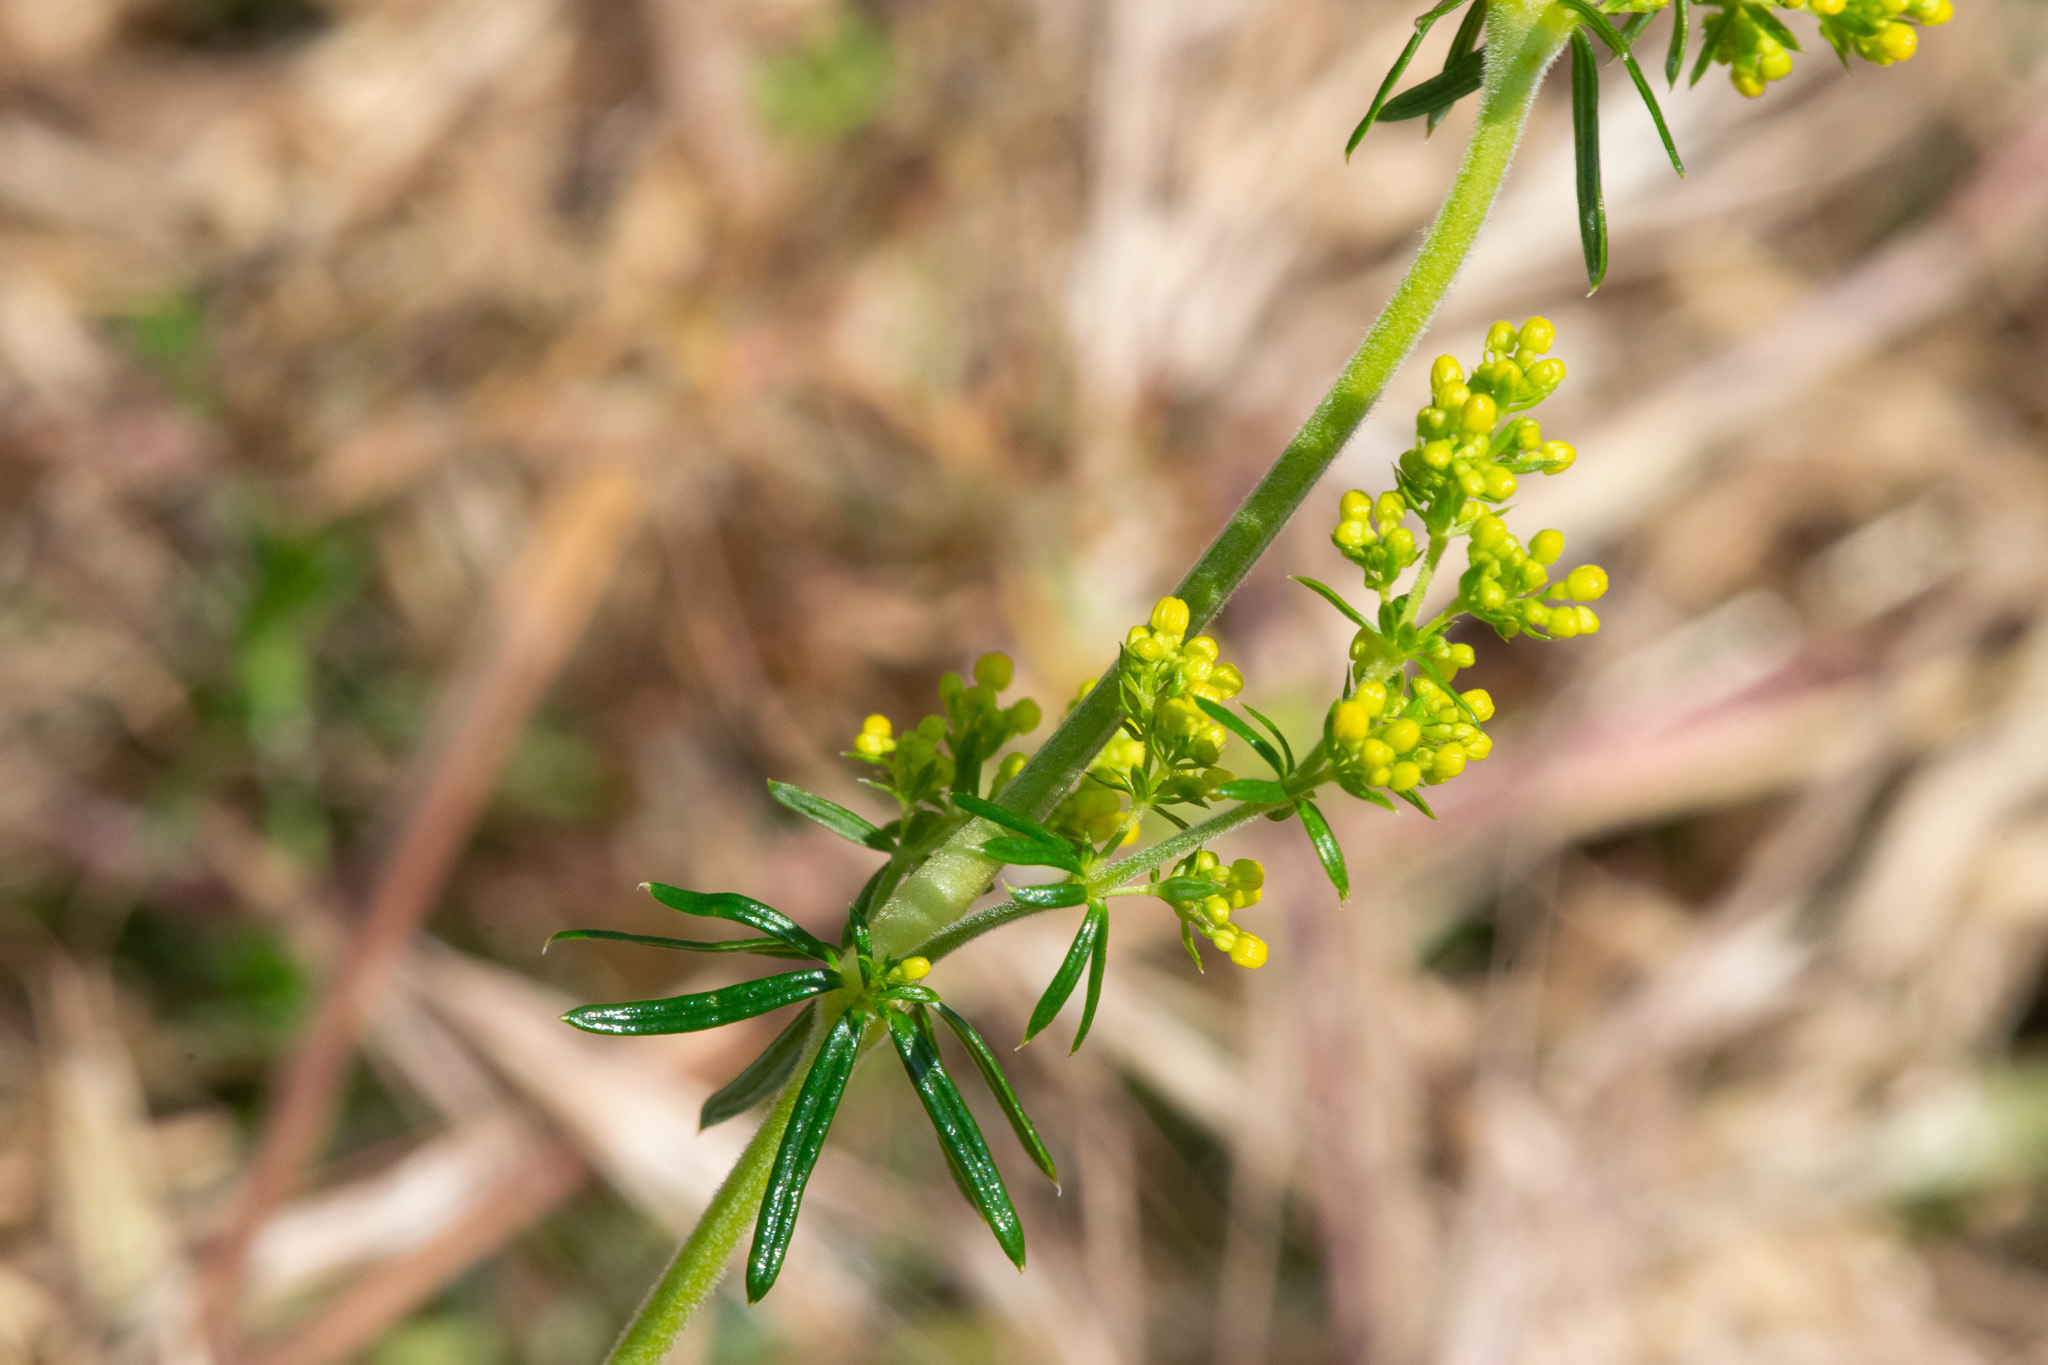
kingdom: Plantae
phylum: Tracheophyta
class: Magnoliopsida
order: Gentianales
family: Rubiaceae
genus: Galium
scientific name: Galium verum
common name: Lady's bedstraw
